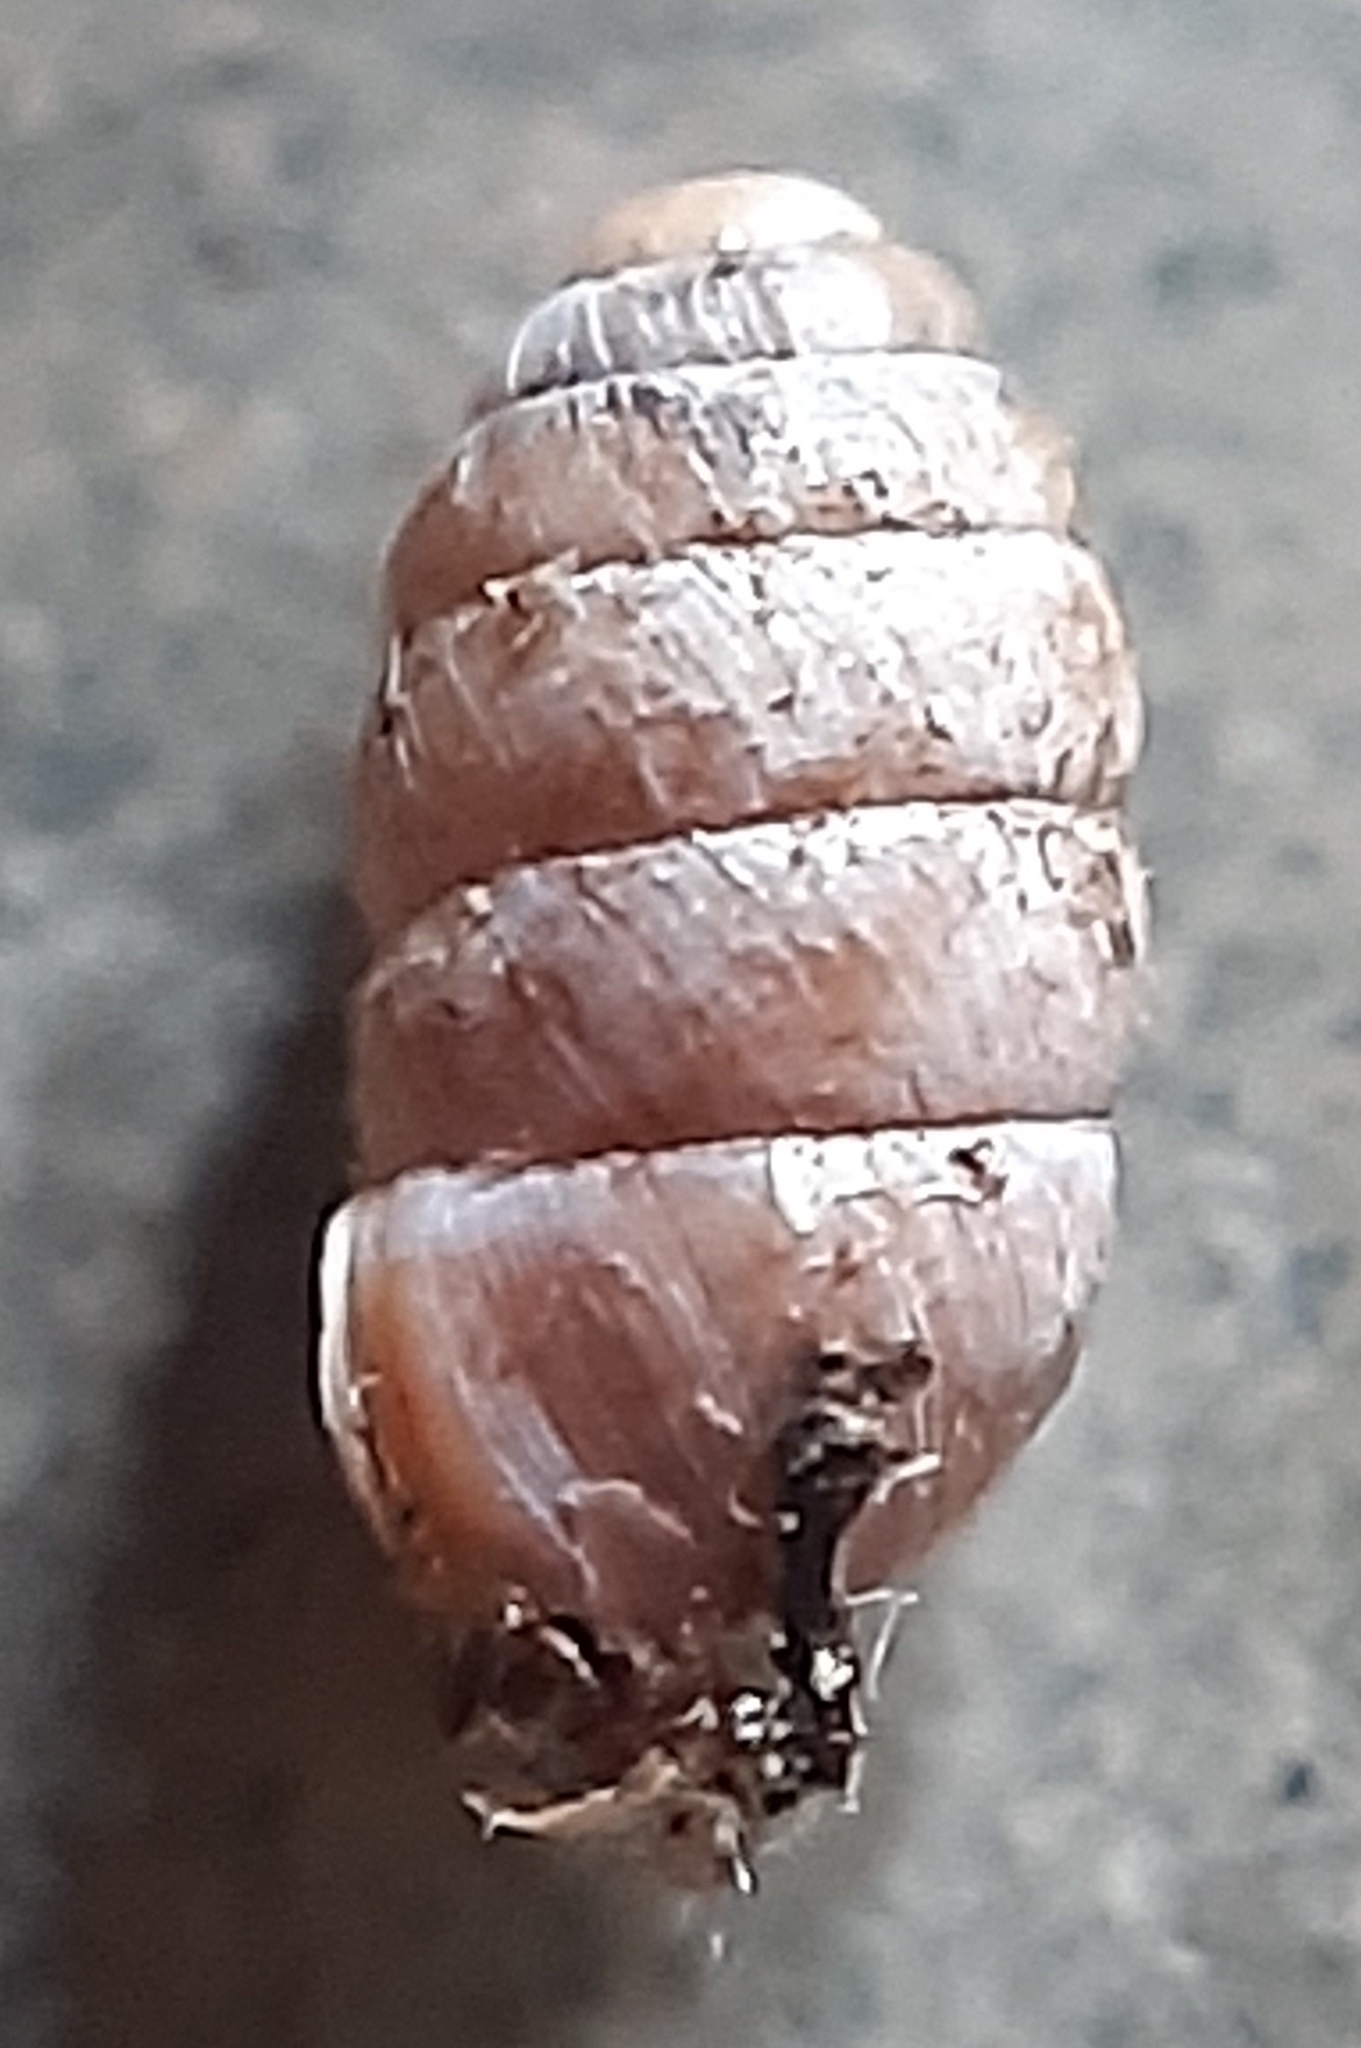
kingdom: Animalia
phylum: Mollusca
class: Gastropoda
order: Stylommatophora
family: Pupillidae
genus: Pupilla
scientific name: Pupilla muscorum
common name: Moss chrysalis snail
